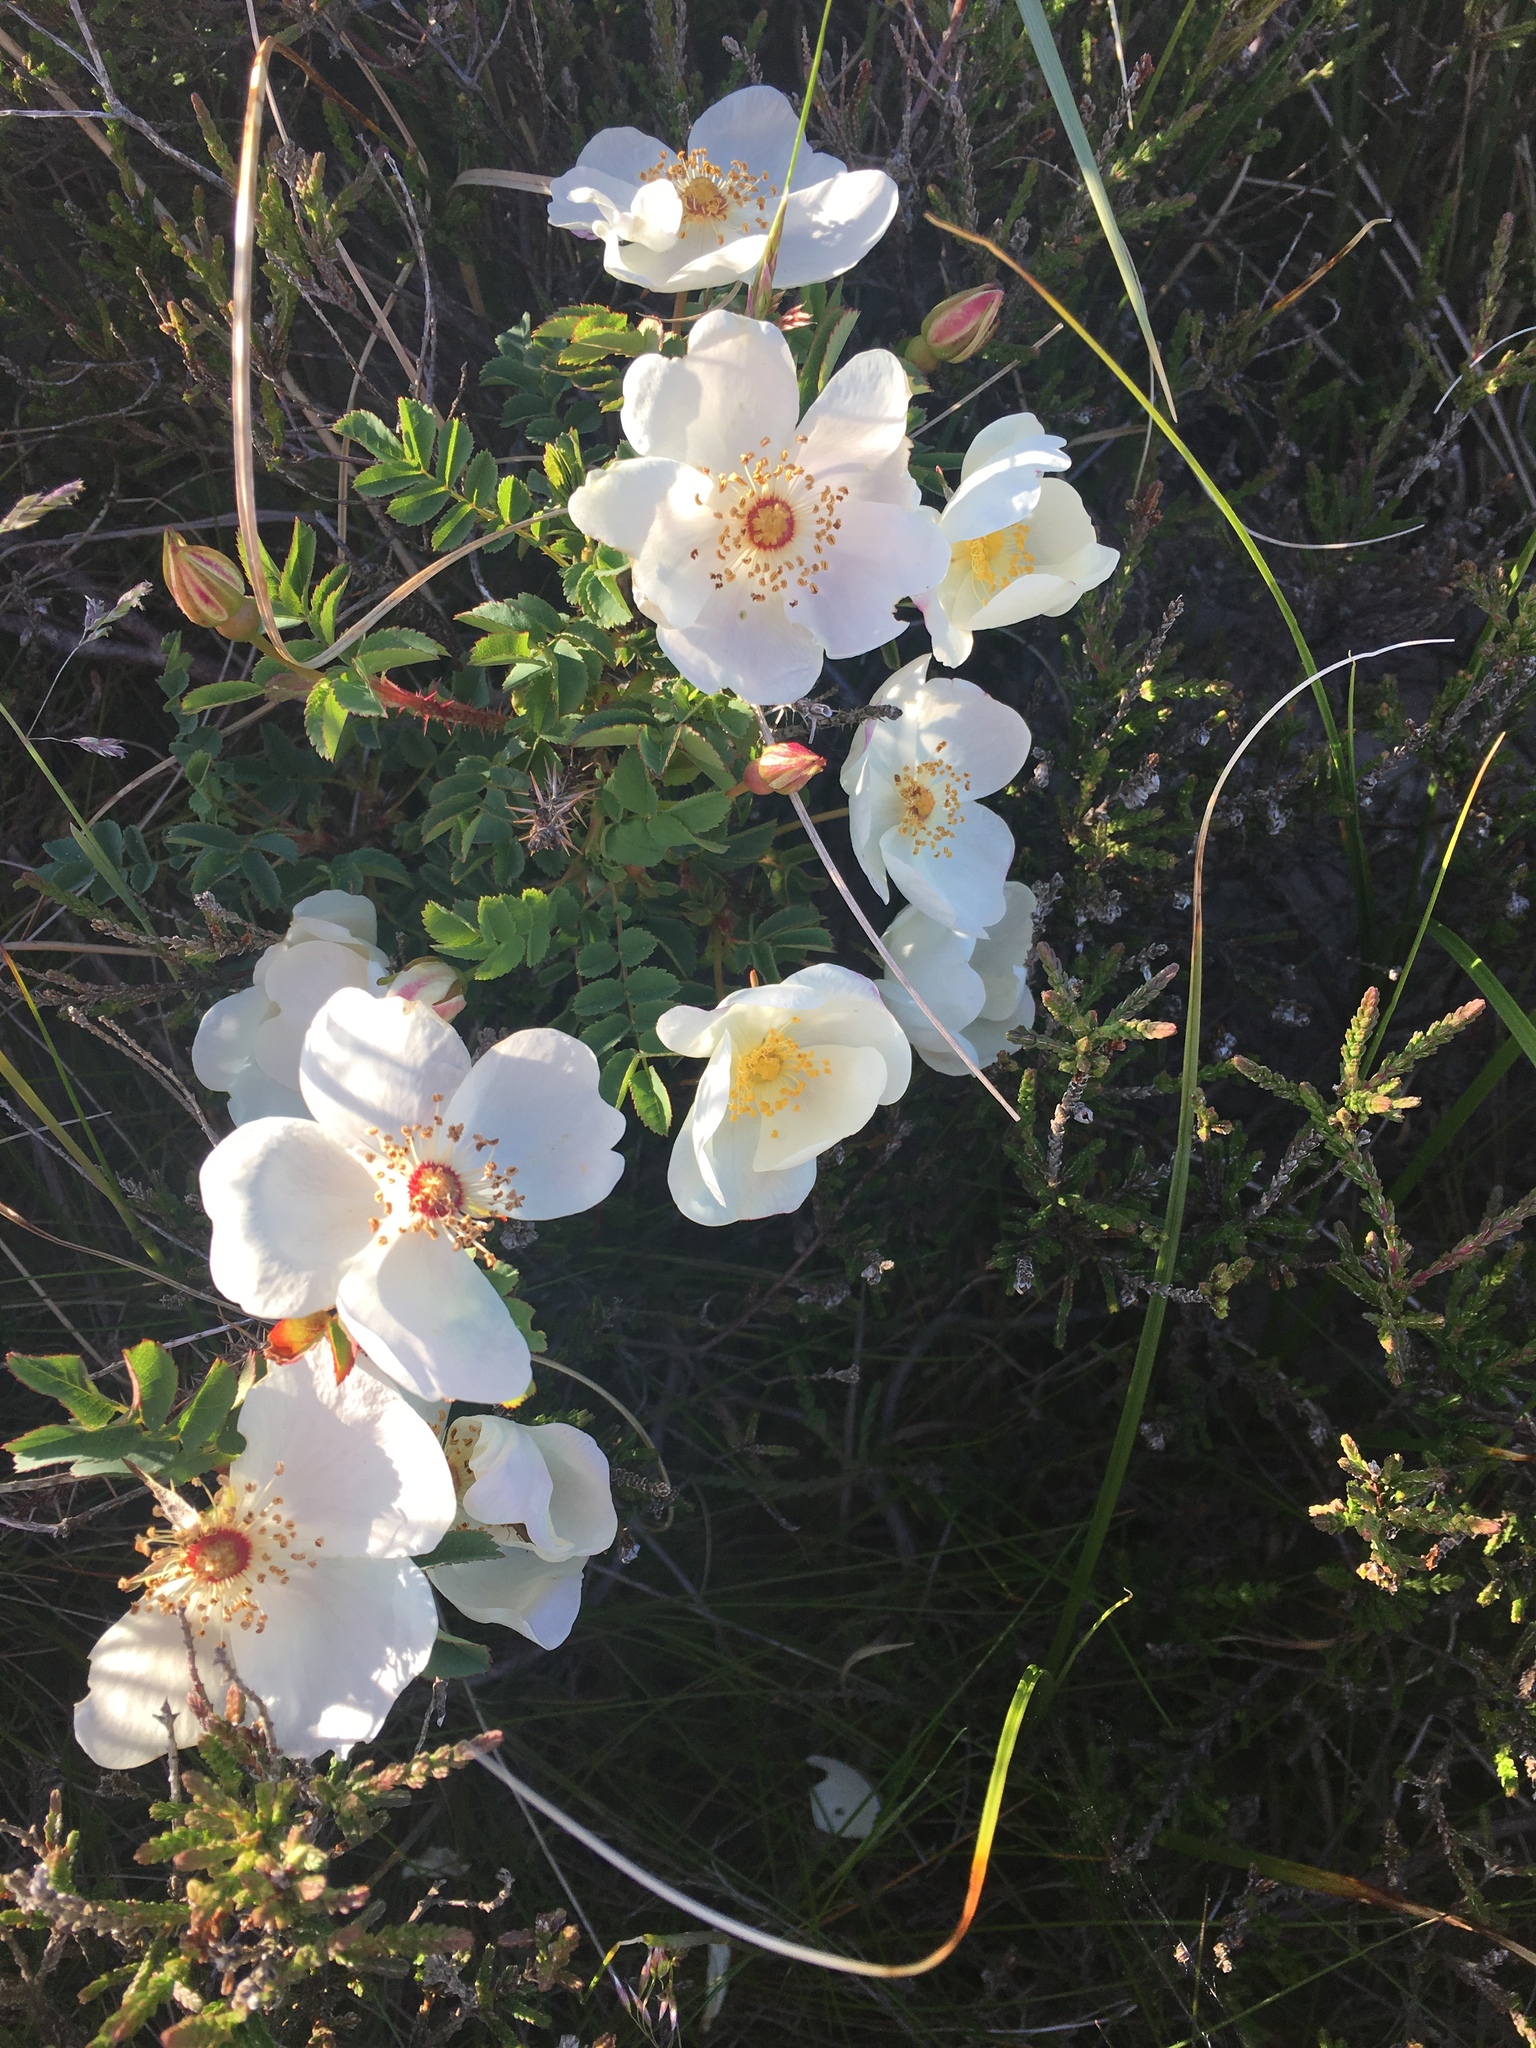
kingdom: Plantae
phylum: Tracheophyta
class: Magnoliopsida
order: Rosales
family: Rosaceae
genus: Rosa
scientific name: Rosa spinosissima
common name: Burnet rose
